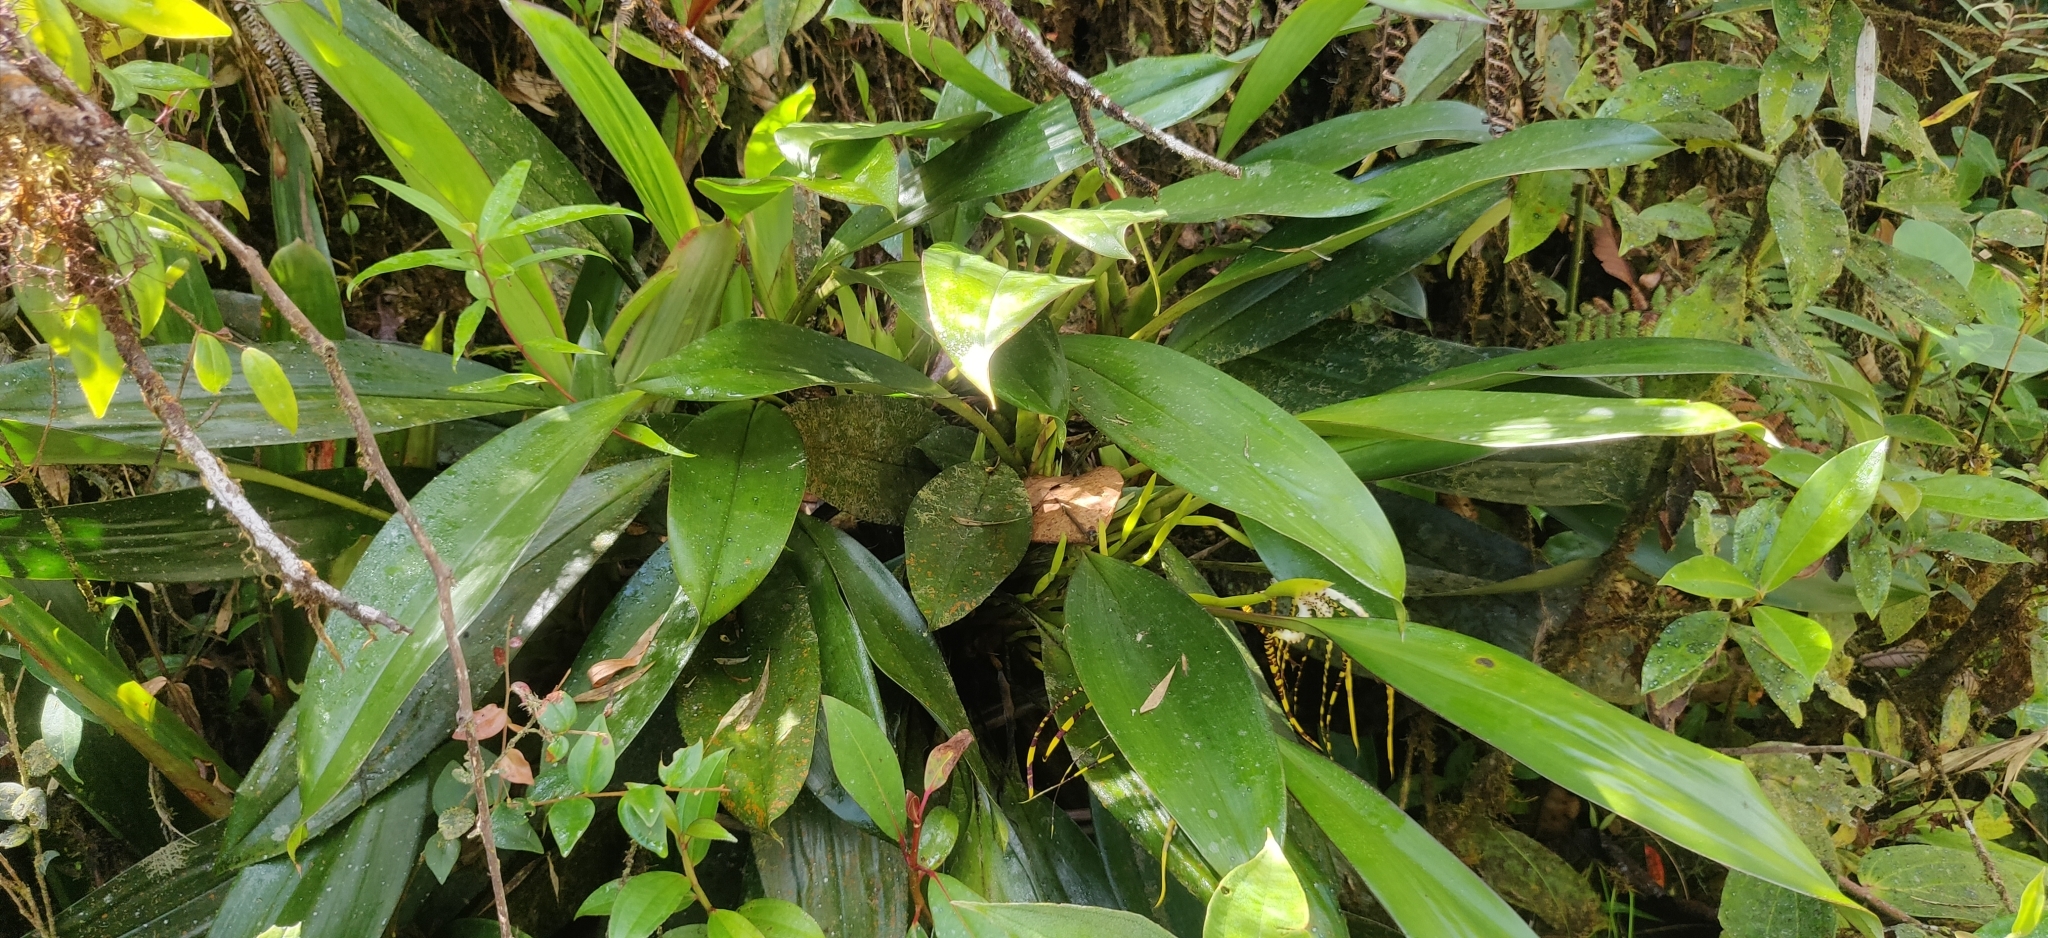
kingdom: Plantae
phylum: Tracheophyta
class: Liliopsida
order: Asparagales
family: Orchidaceae
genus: Maxillaria
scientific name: Maxillaria speciosa
